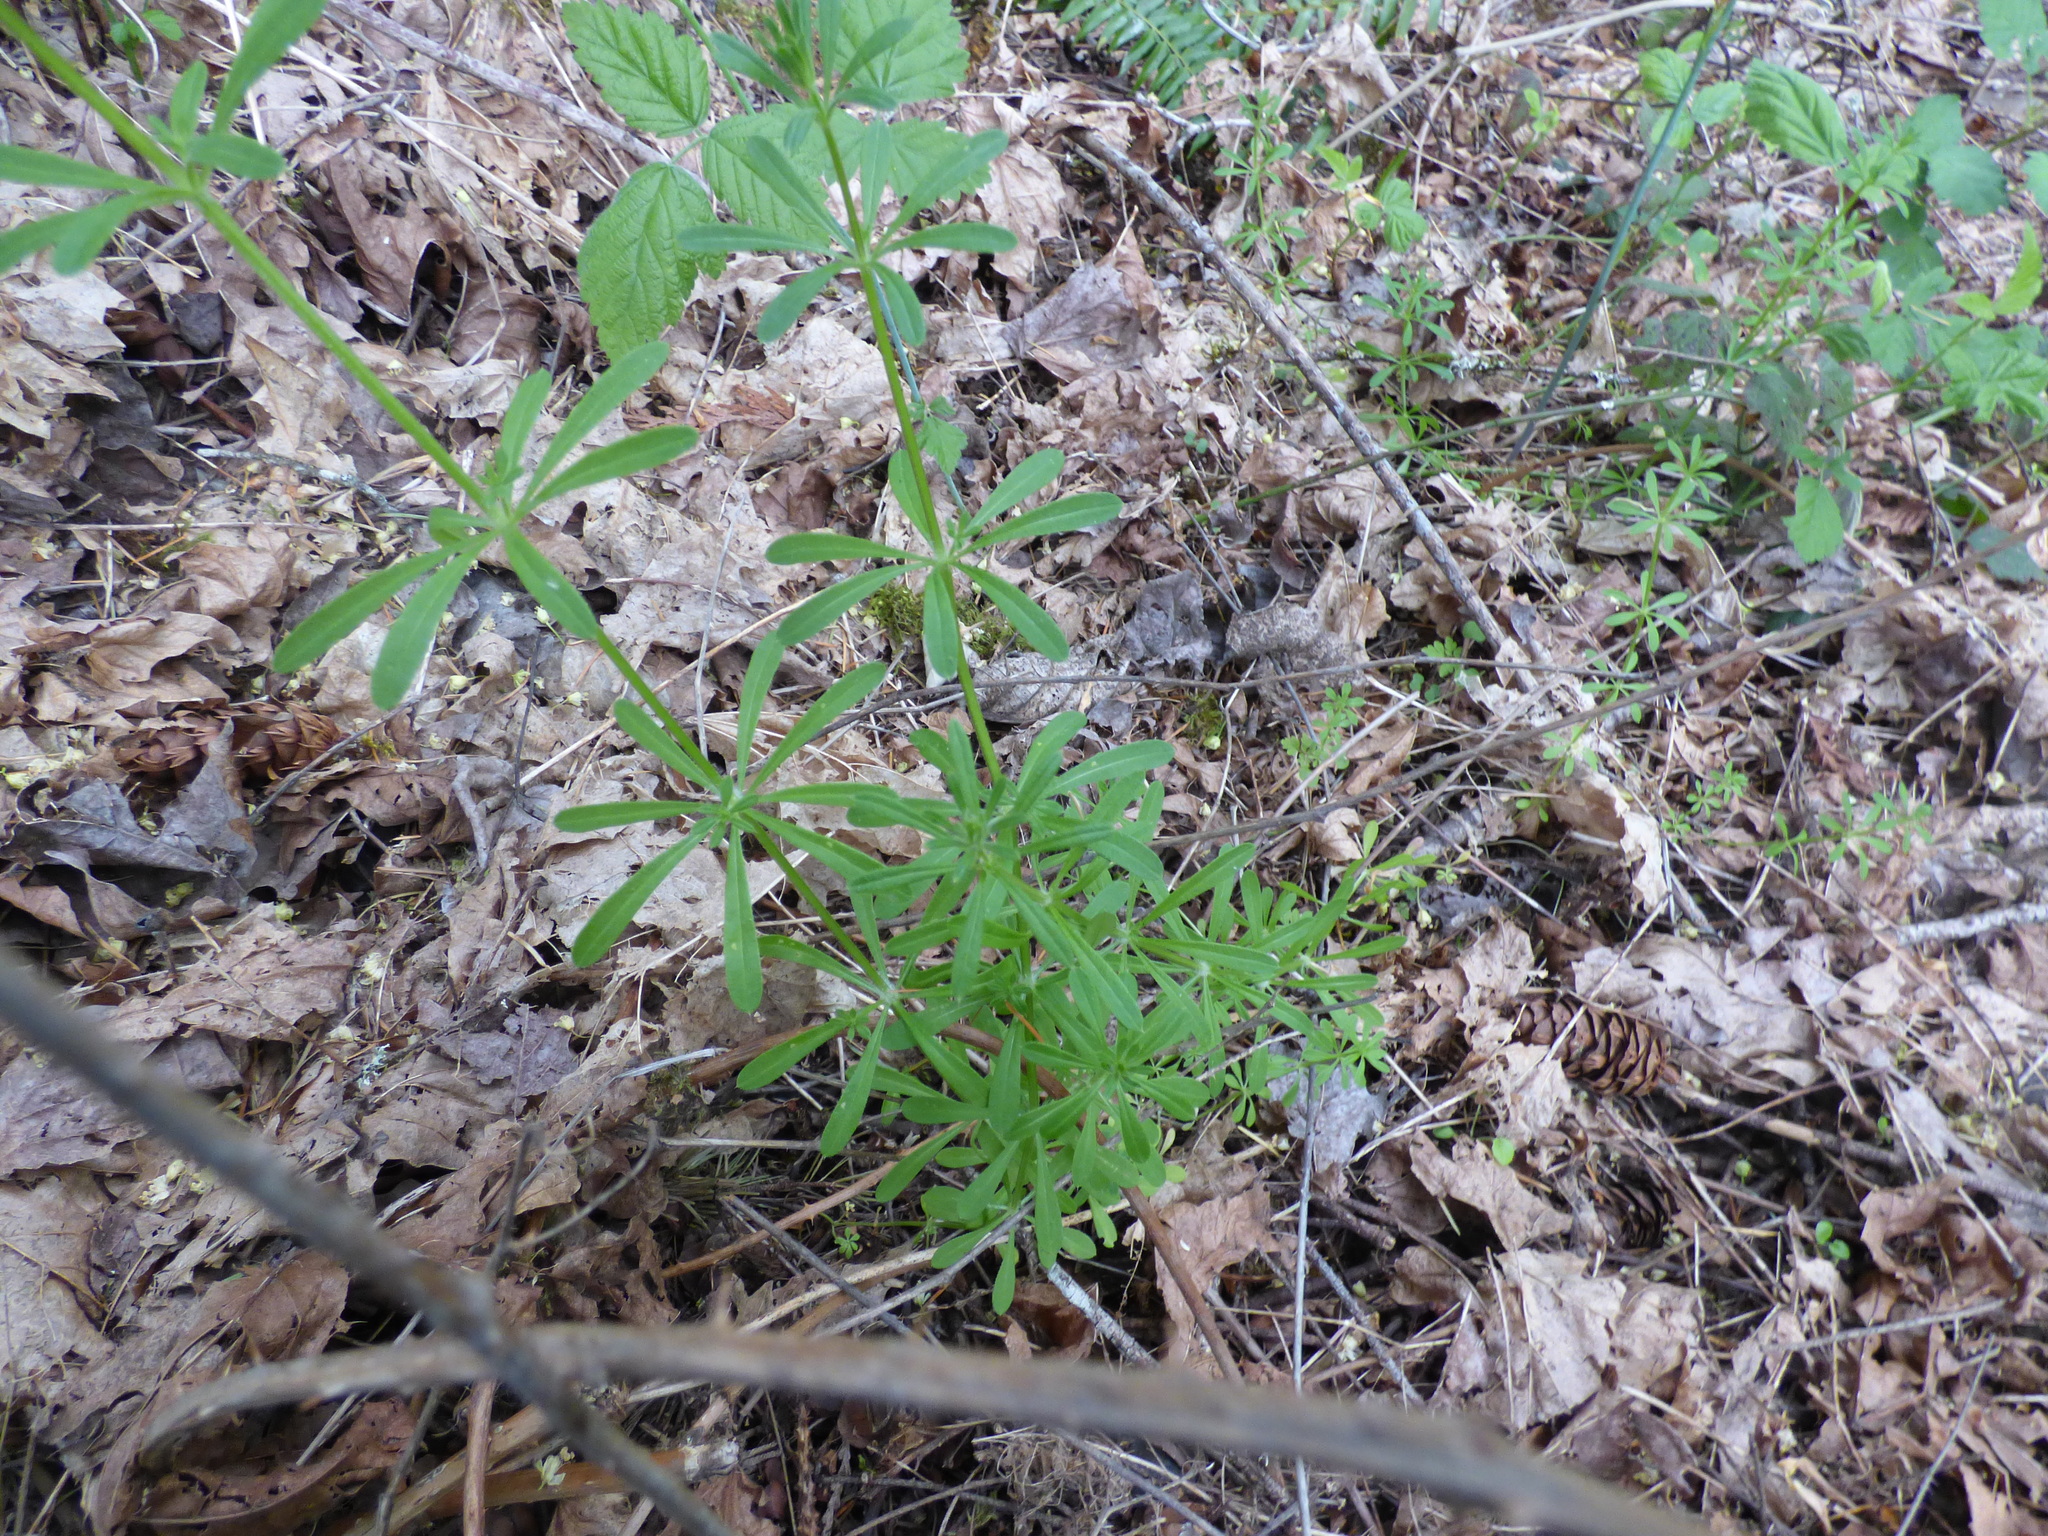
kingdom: Plantae
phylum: Tracheophyta
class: Magnoliopsida
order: Gentianales
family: Rubiaceae
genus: Galium
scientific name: Galium aparine
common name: Cleavers
